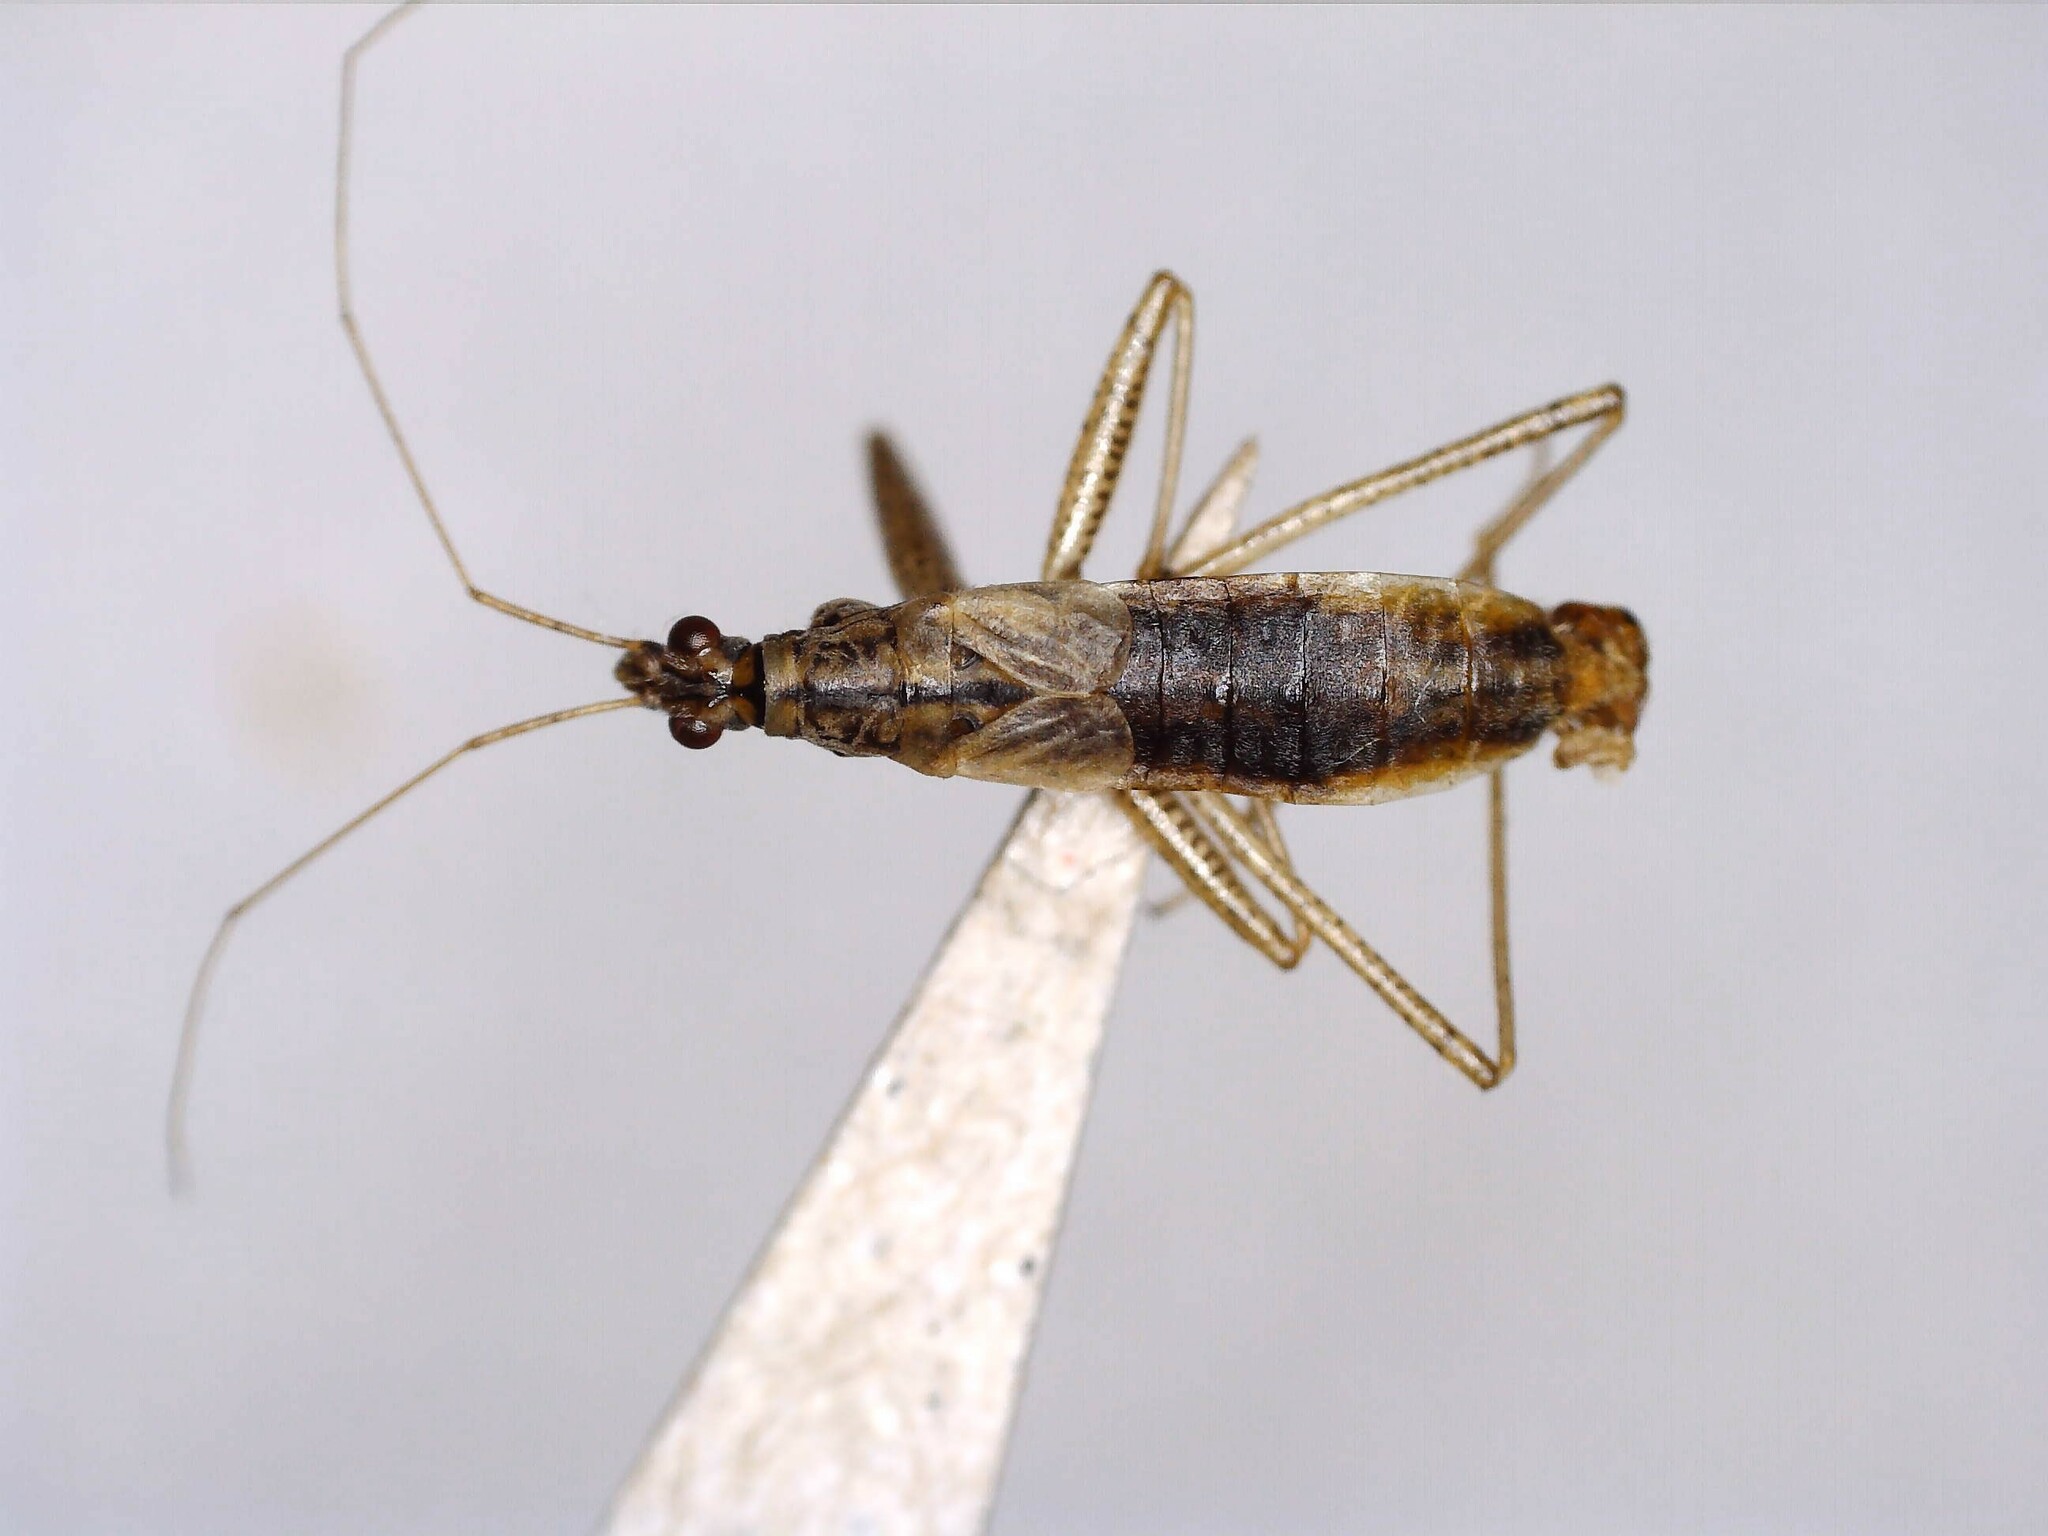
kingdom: Animalia
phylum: Arthropoda
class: Insecta
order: Hemiptera
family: Nabidae
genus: Nabis
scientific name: Nabis limbatus
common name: Marsh damselbug
